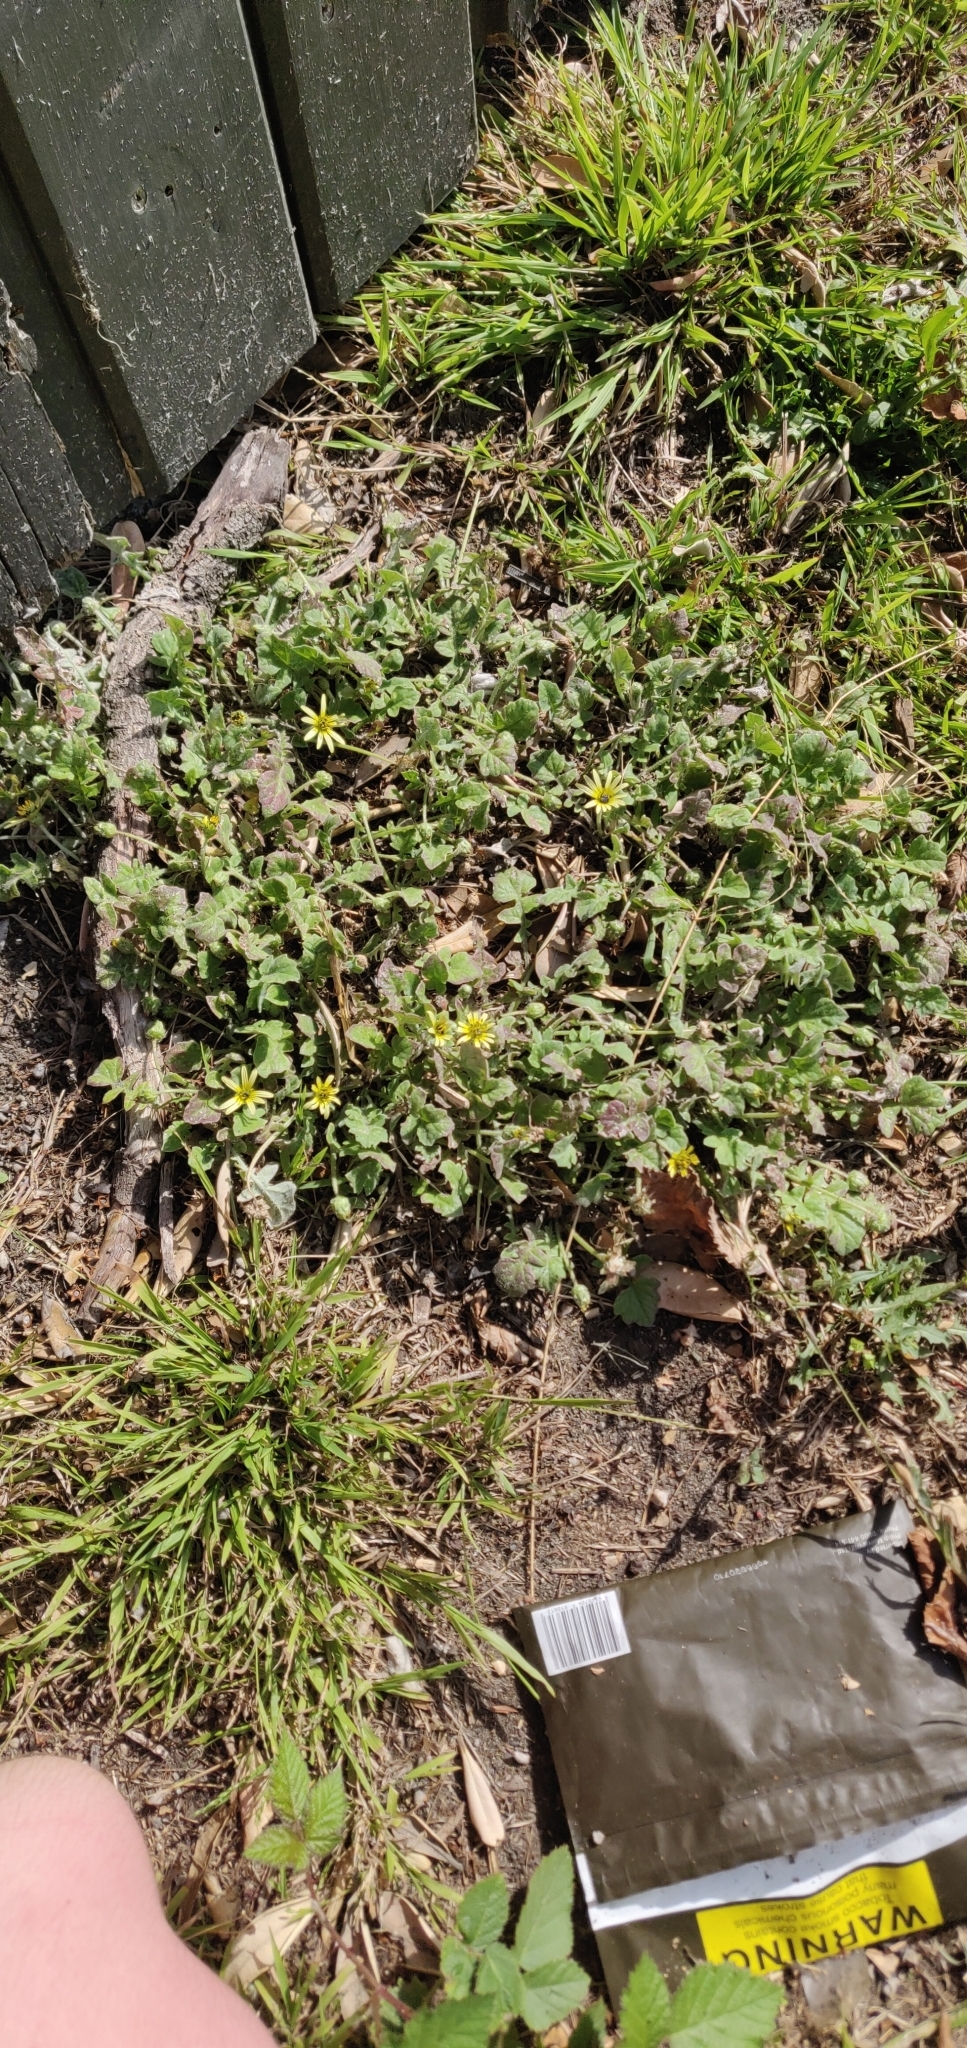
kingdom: Plantae
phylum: Tracheophyta
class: Magnoliopsida
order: Asterales
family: Asteraceae
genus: Arctotheca
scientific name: Arctotheca calendula
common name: Capeweed
